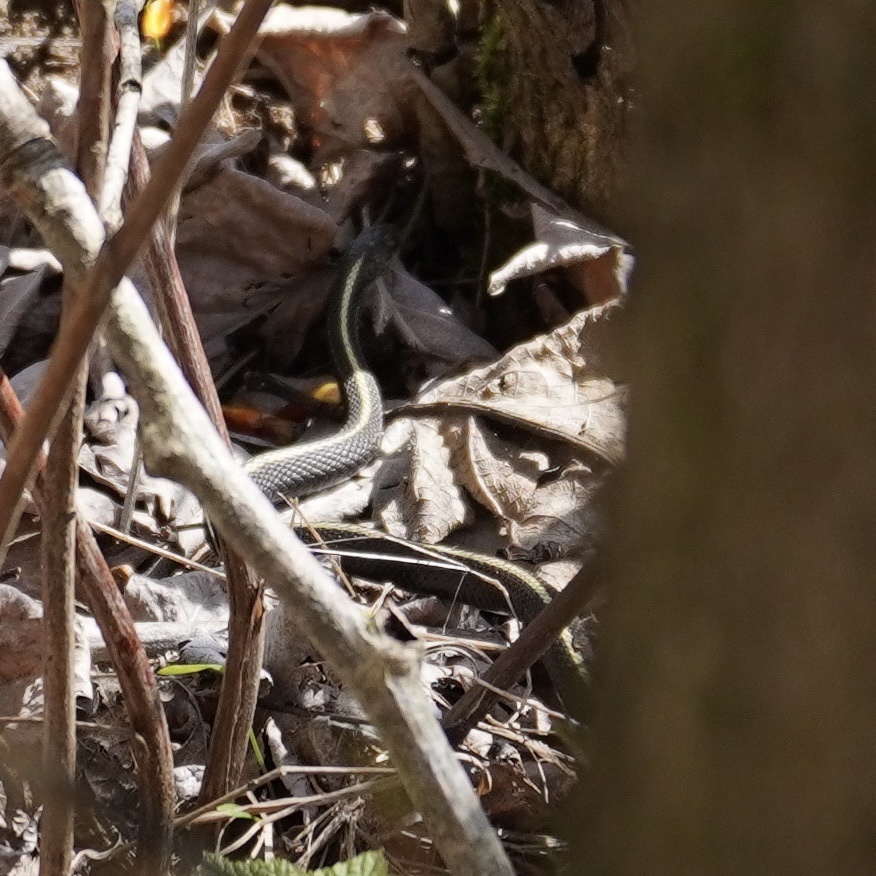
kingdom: Animalia
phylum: Chordata
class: Squamata
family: Colubridae
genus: Thamnophis
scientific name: Thamnophis ordinoides
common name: Northwestern garter snake
